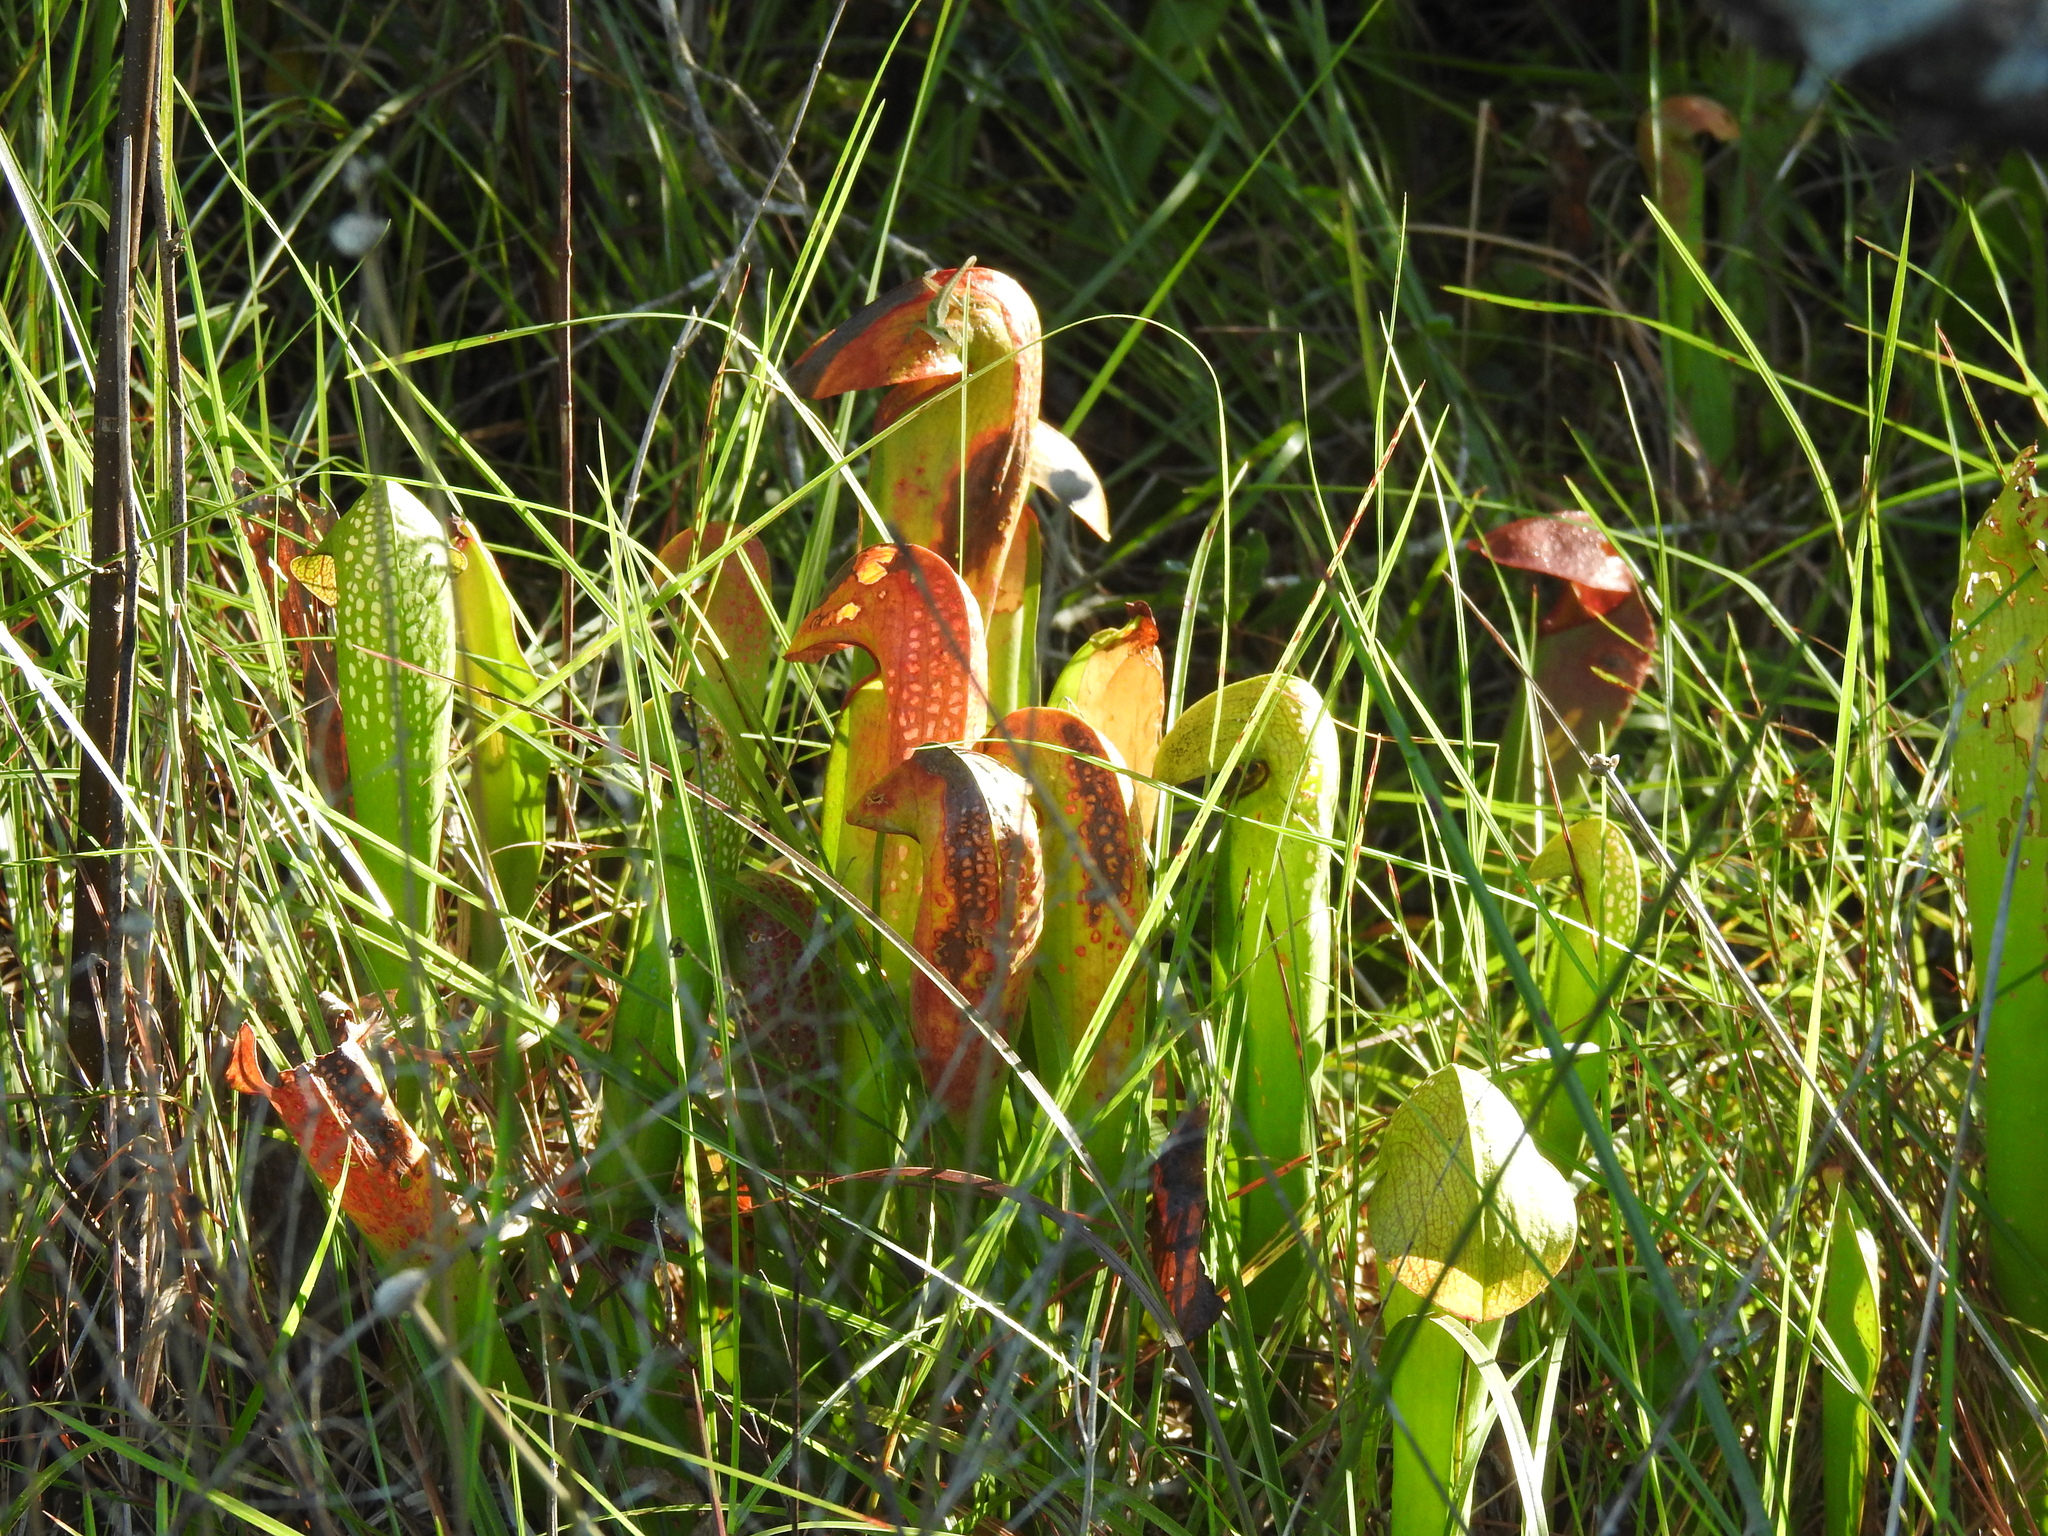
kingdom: Plantae
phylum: Tracheophyta
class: Magnoliopsida
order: Ericales
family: Sarraceniaceae
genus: Sarracenia
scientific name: Sarracenia minor
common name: Rainhat-trumpet
